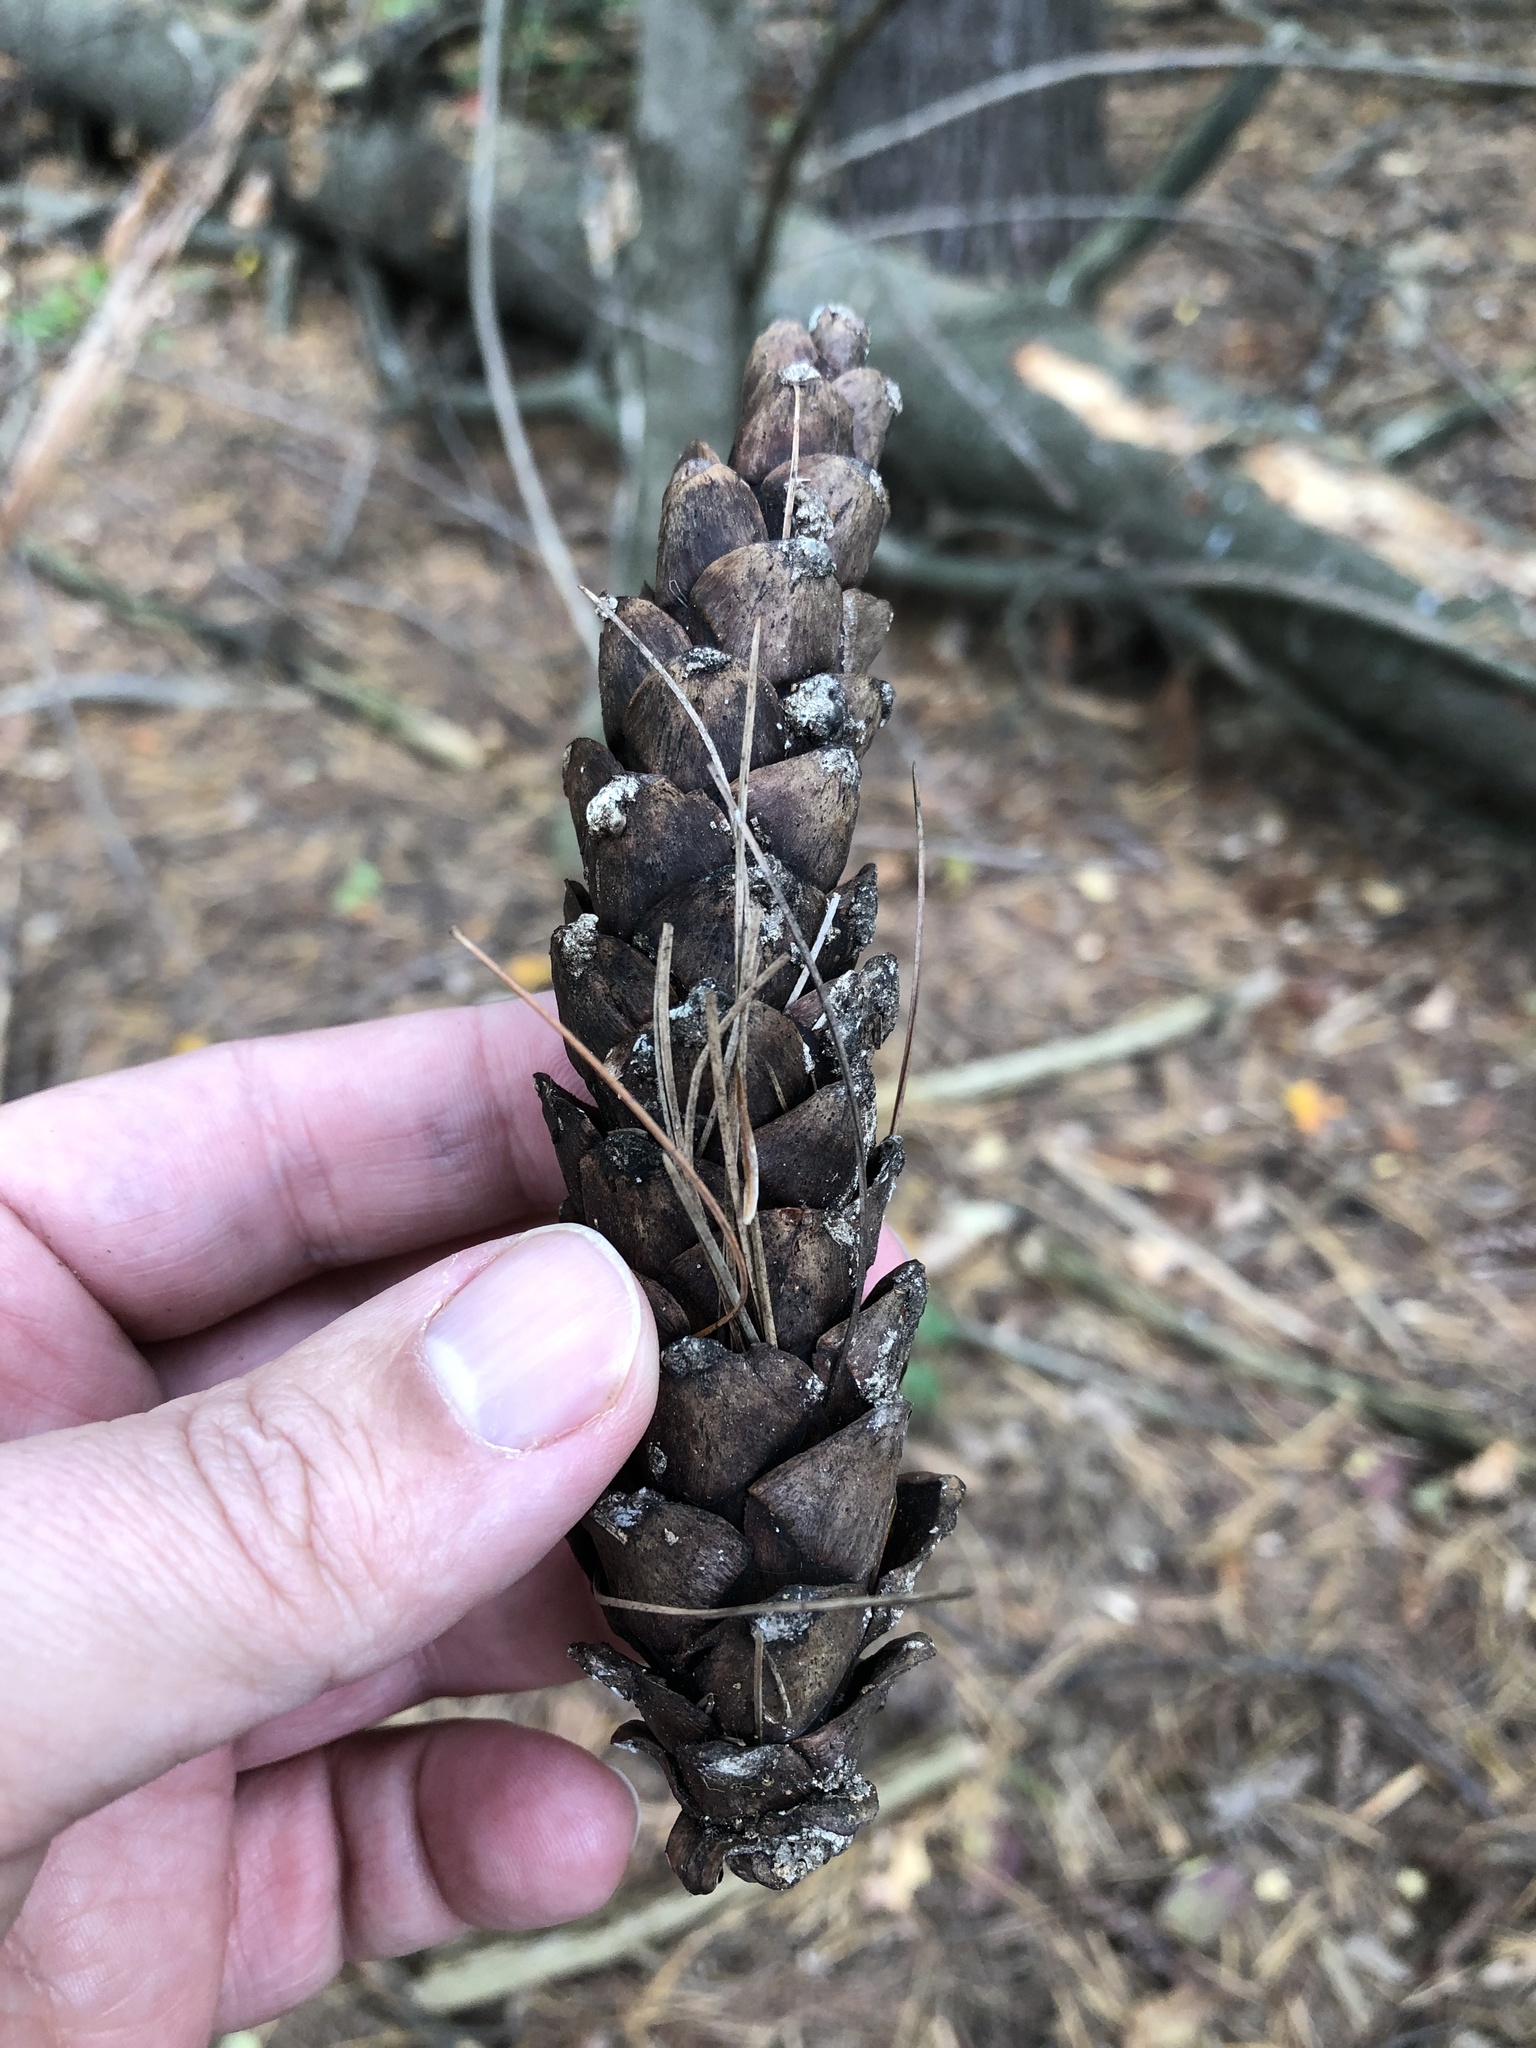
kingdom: Plantae
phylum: Tracheophyta
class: Pinopsida
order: Pinales
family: Pinaceae
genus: Pinus
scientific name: Pinus strobus
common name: Weymouth pine
